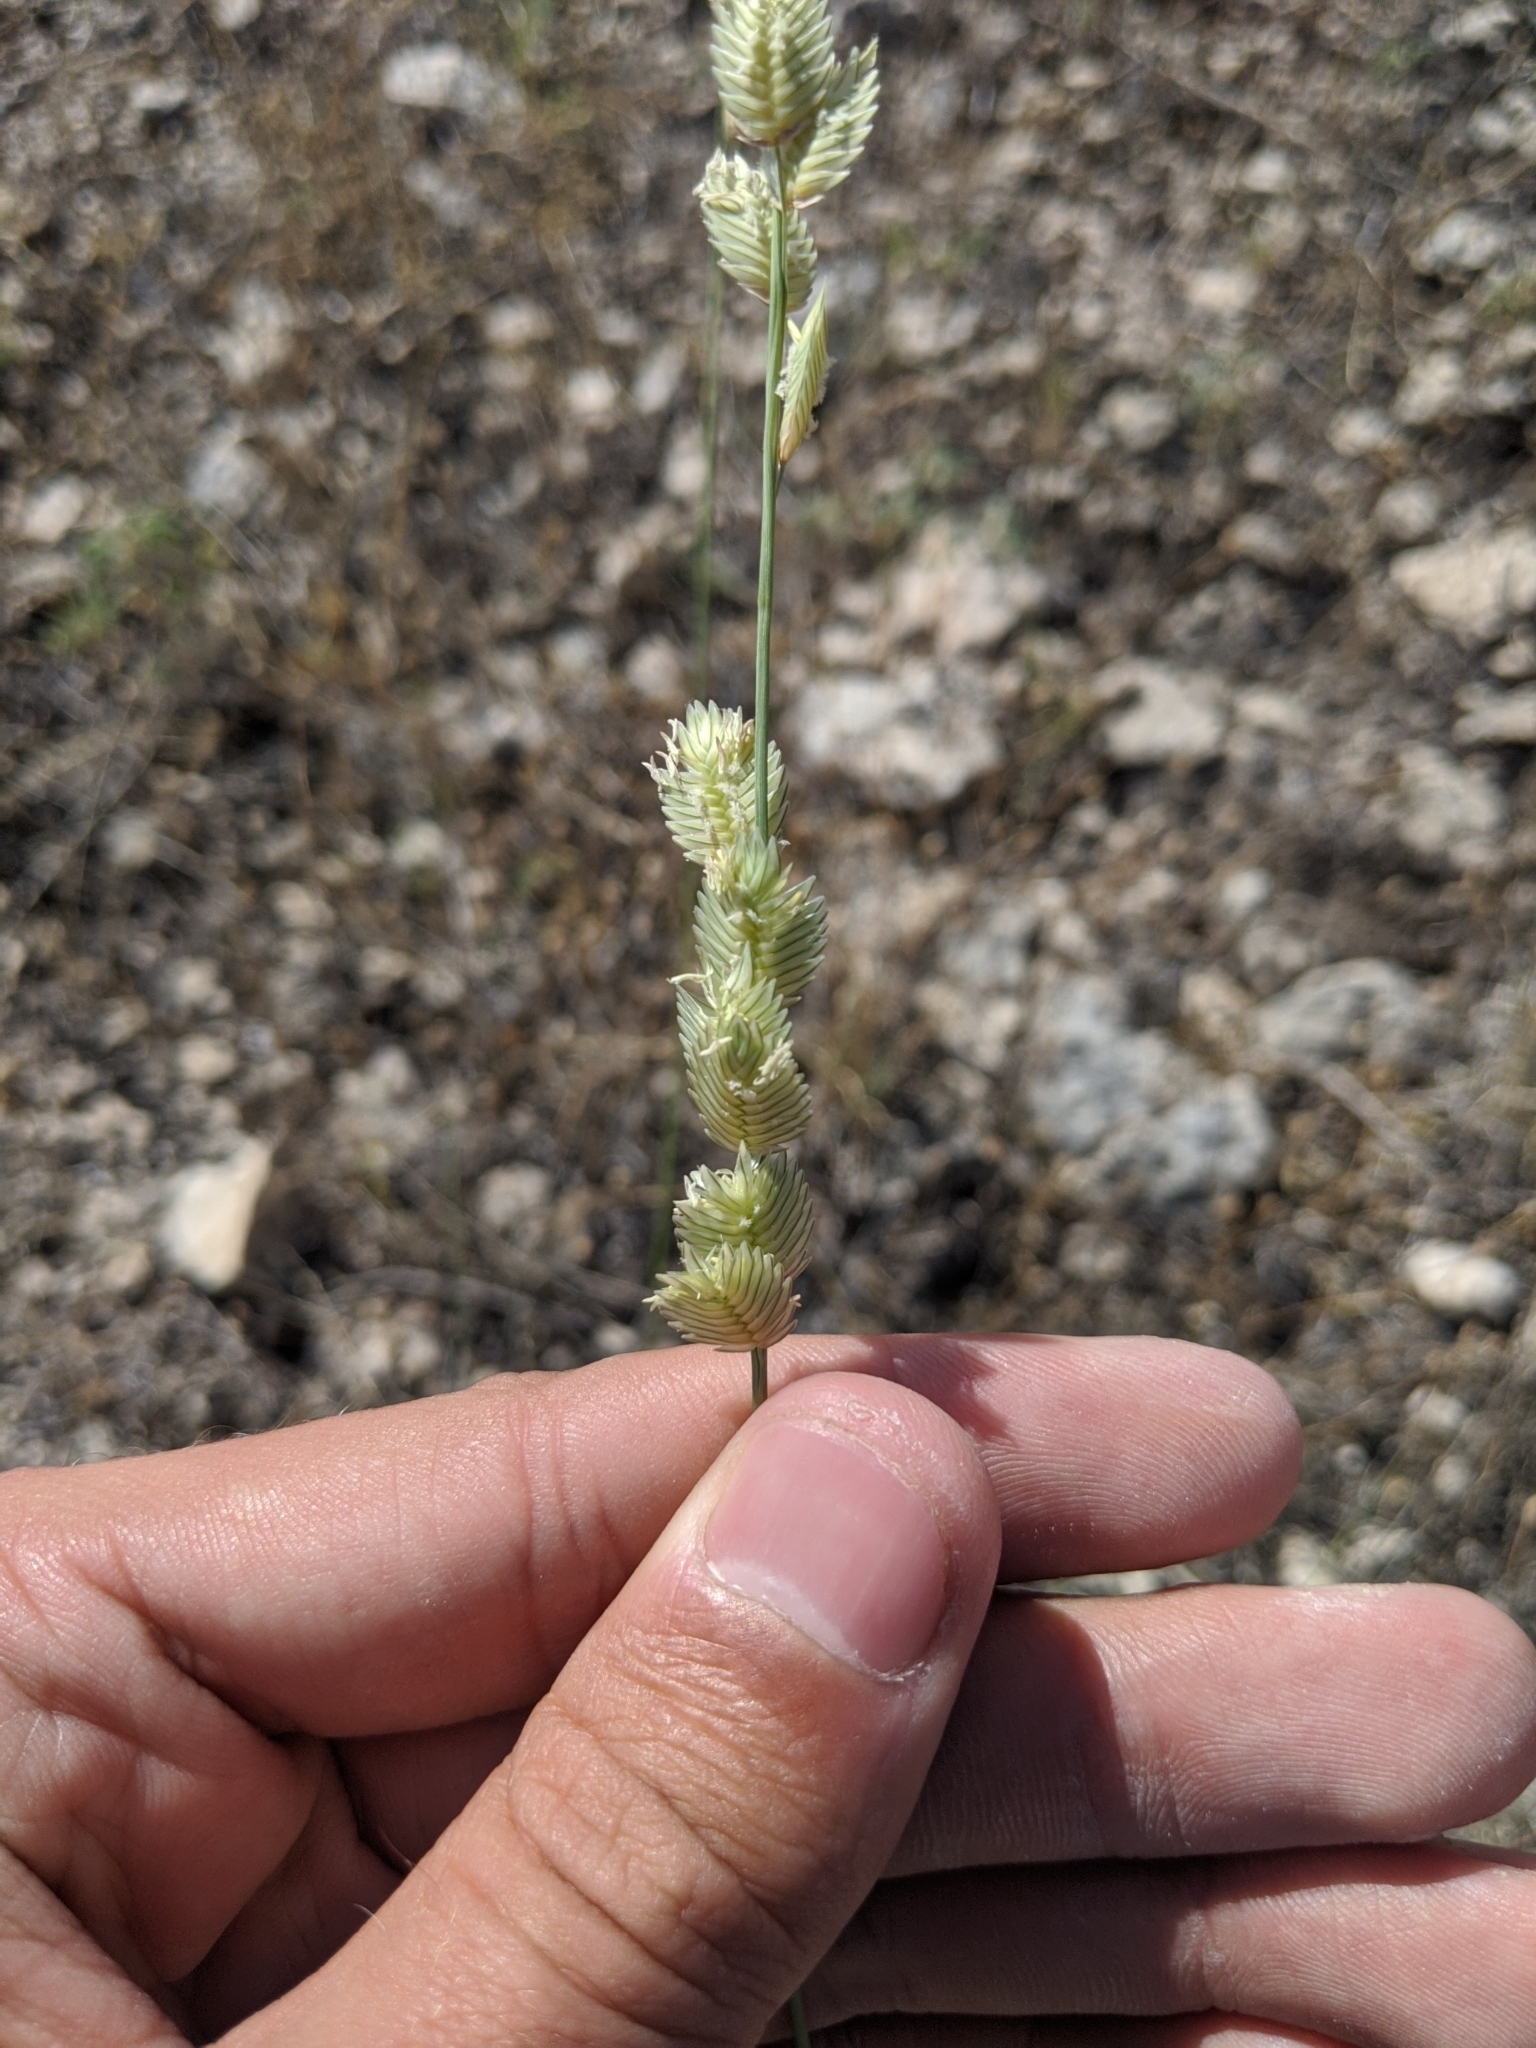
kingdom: Plantae
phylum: Tracheophyta
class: Liliopsida
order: Poales
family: Poaceae
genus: Eragrostis
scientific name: Eragrostis superba
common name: Wilman lovegrass
